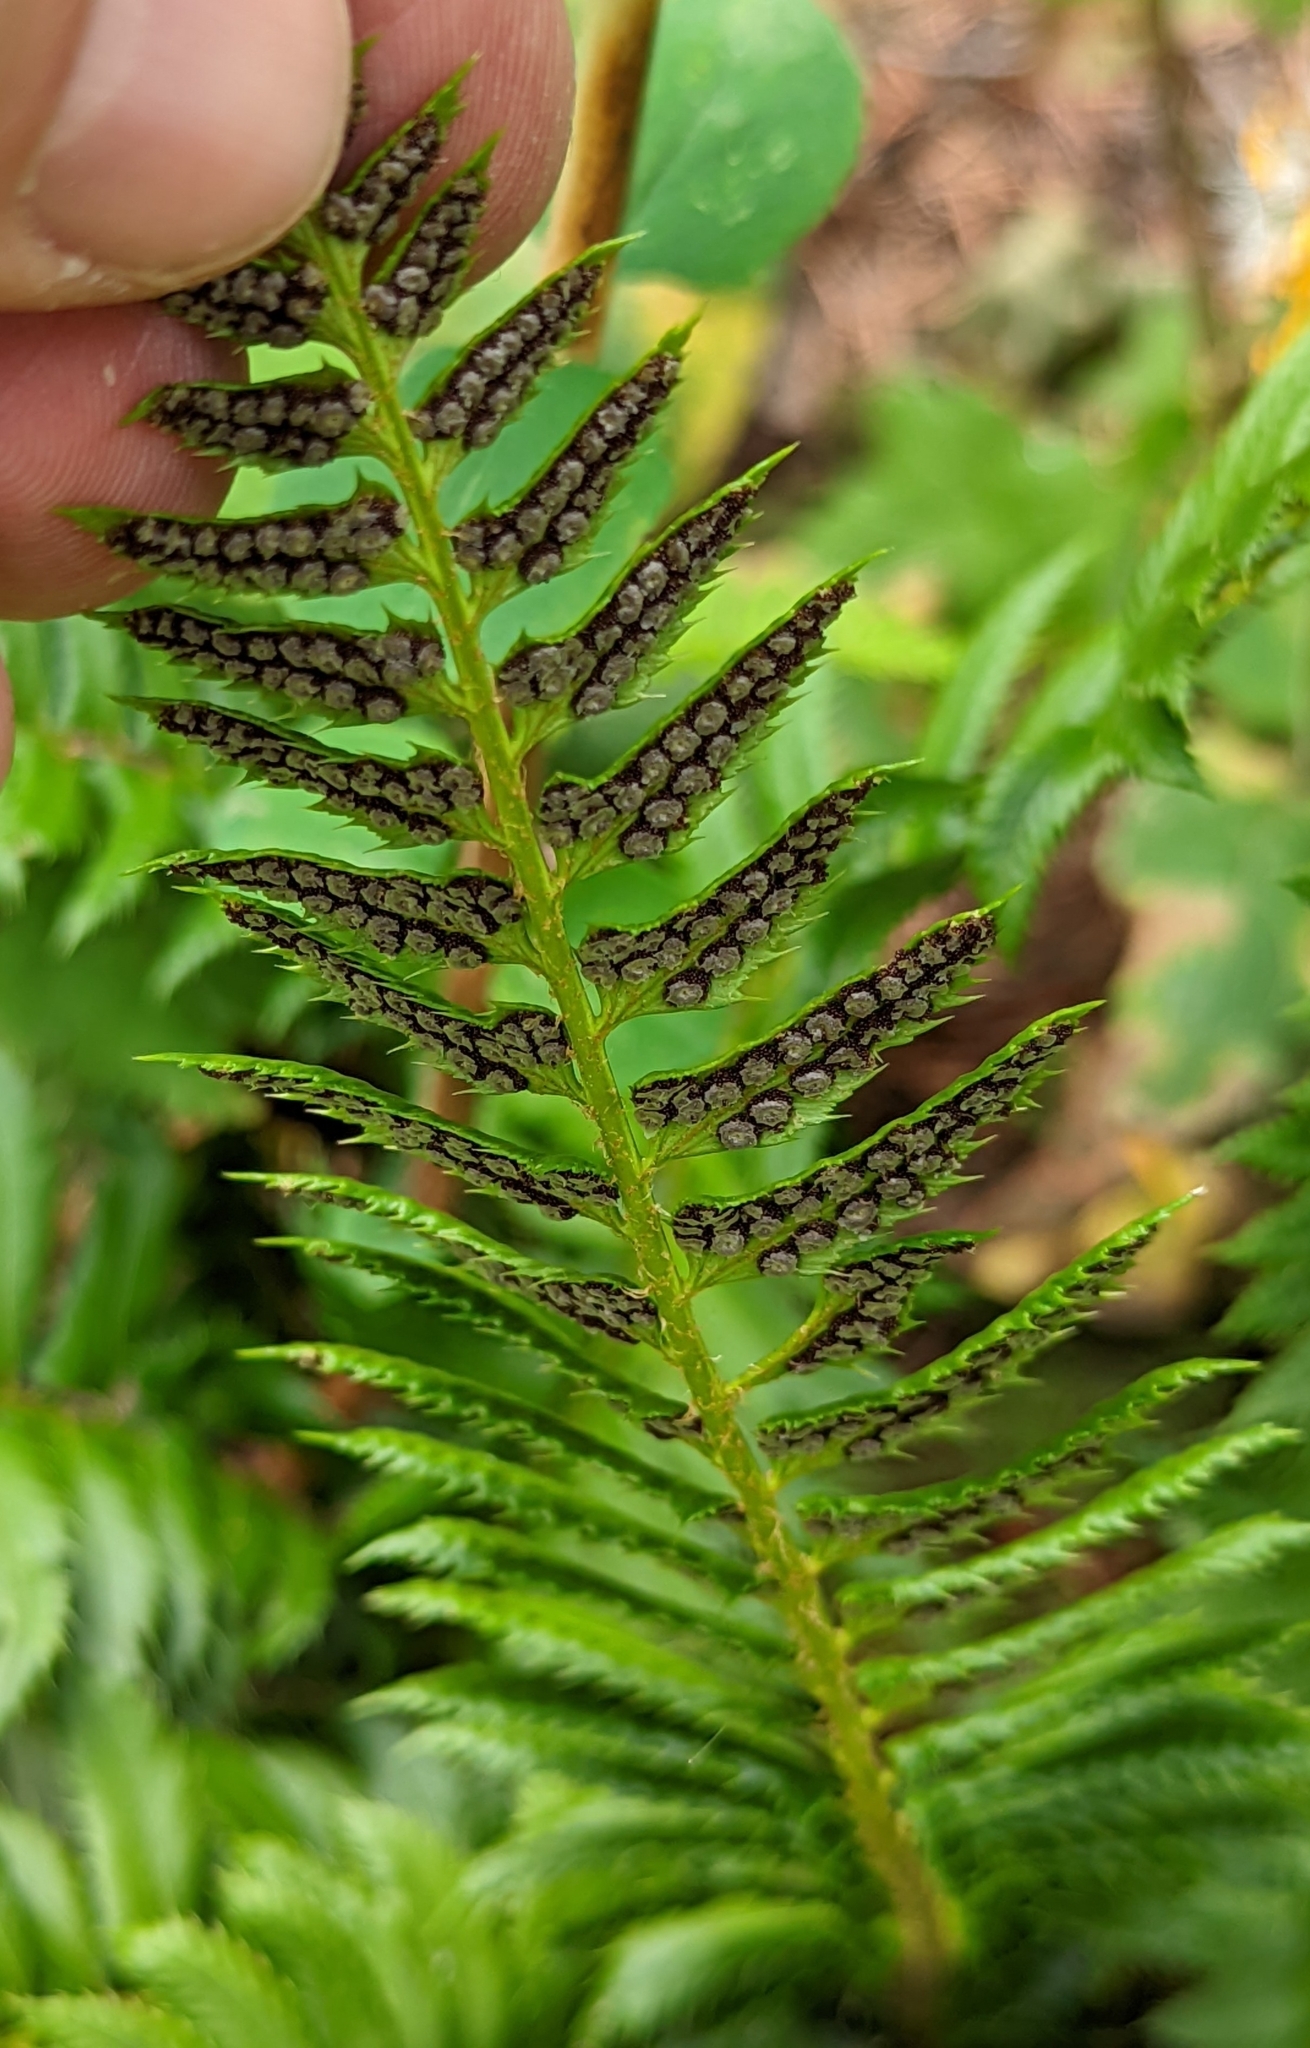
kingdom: Plantae
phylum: Tracheophyta
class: Polypodiopsida
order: Polypodiales
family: Dryopteridaceae
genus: Polystichum
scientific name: Polystichum lonchitis
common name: Holly fern
